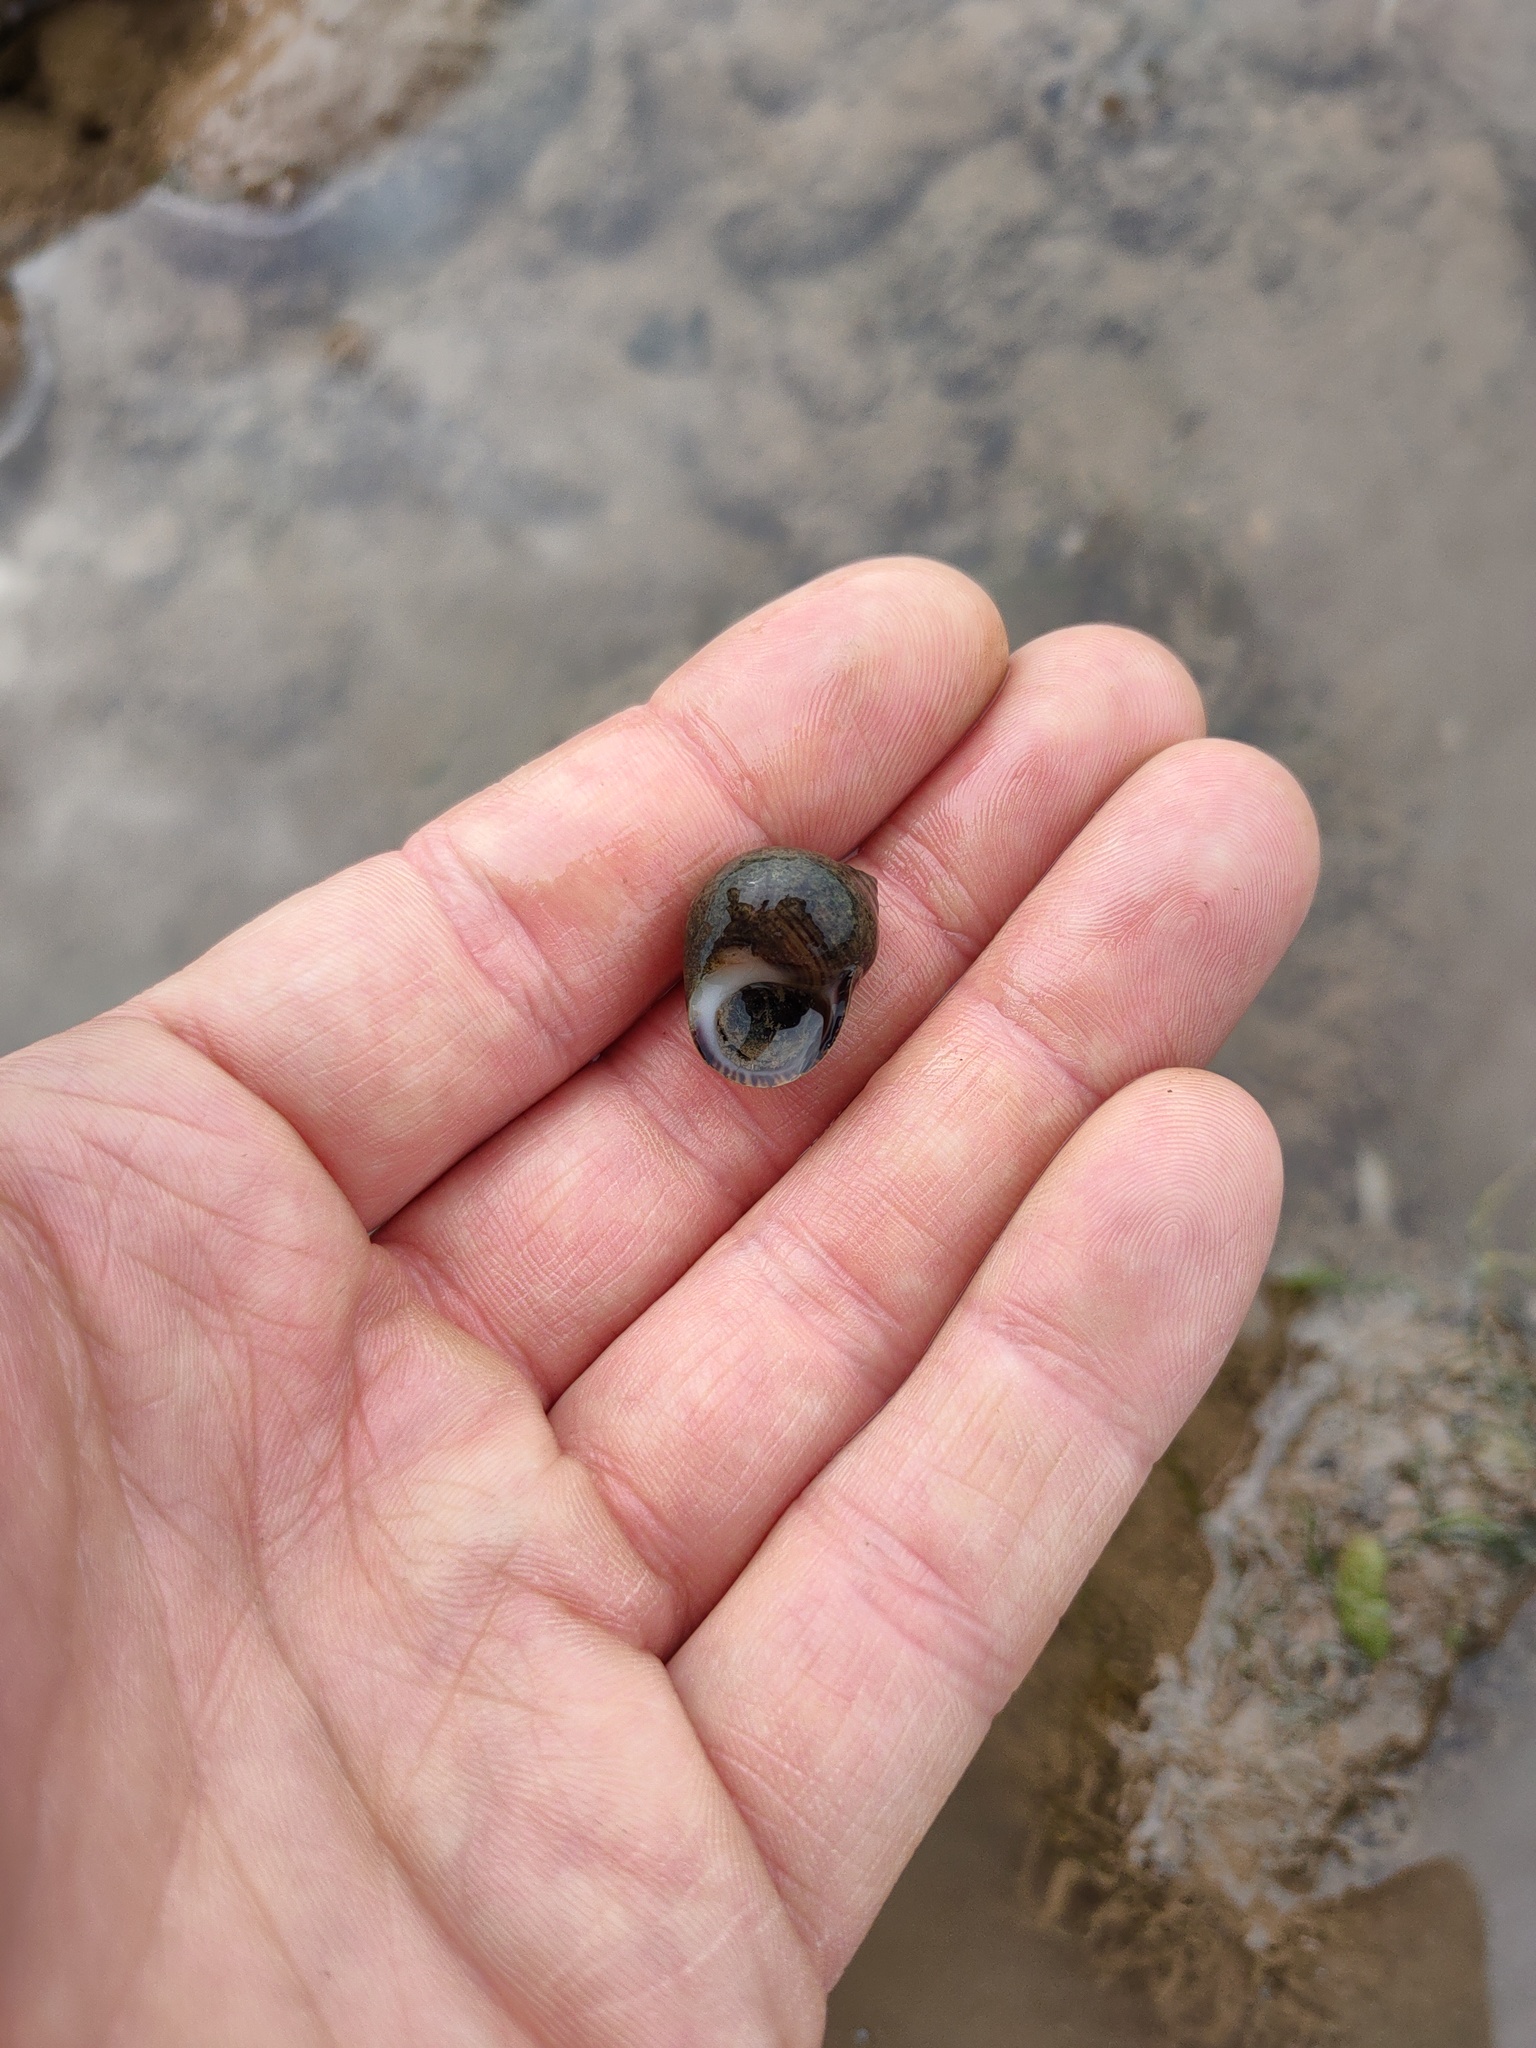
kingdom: Animalia
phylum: Mollusca
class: Gastropoda
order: Littorinimorpha
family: Littorinidae
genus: Littorina
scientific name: Littorina littorea
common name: Common periwinkle
